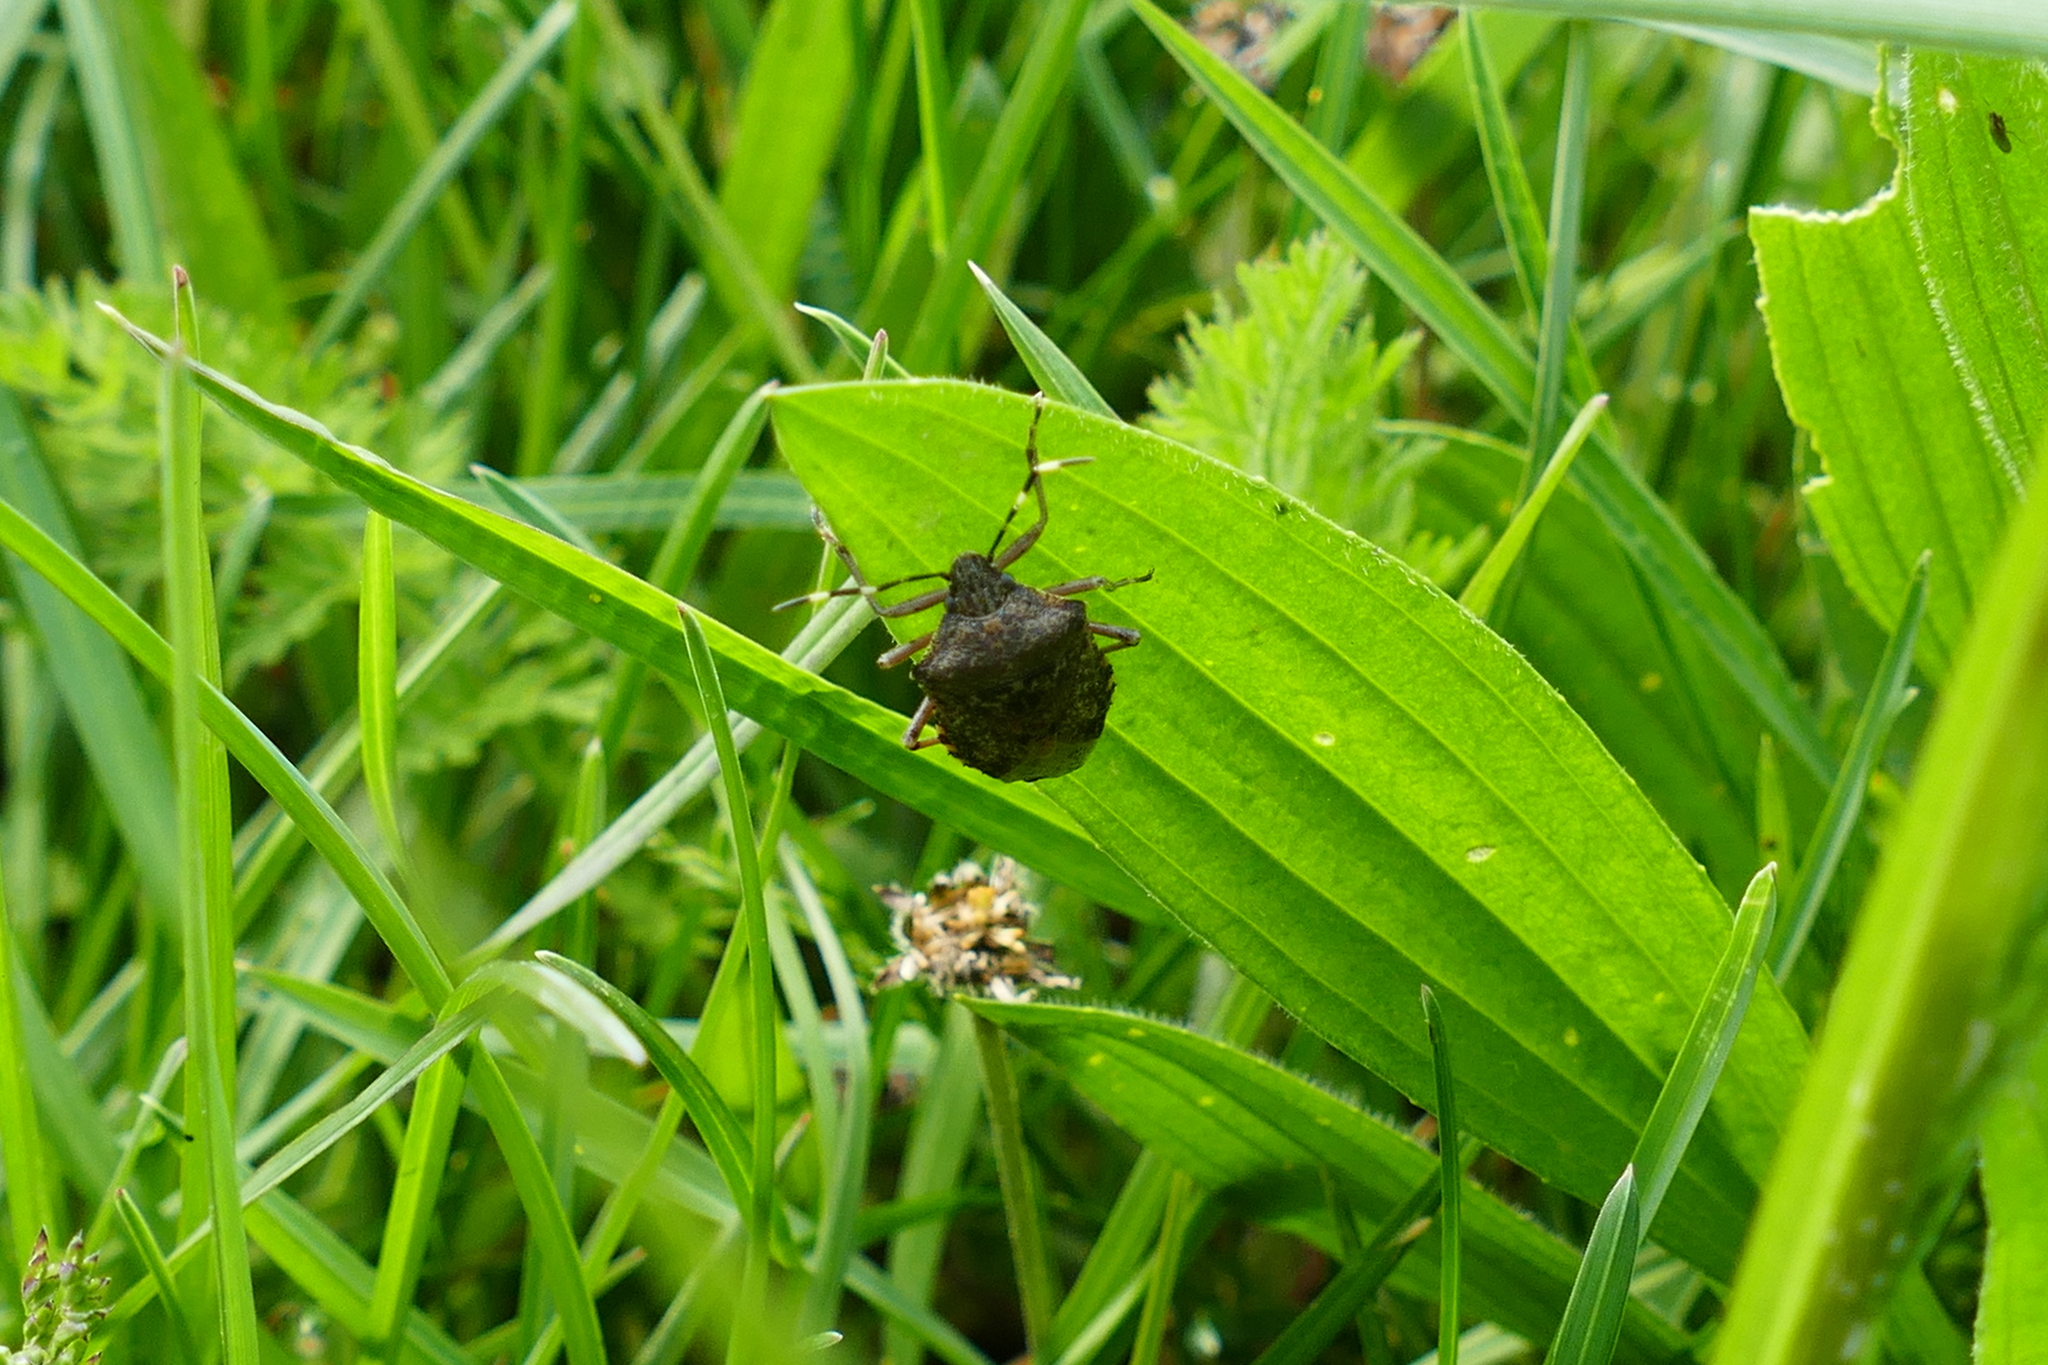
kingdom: Animalia
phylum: Arthropoda
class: Insecta
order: Hemiptera
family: Pentatomidae
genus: Rhaphigaster
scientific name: Rhaphigaster nebulosa
